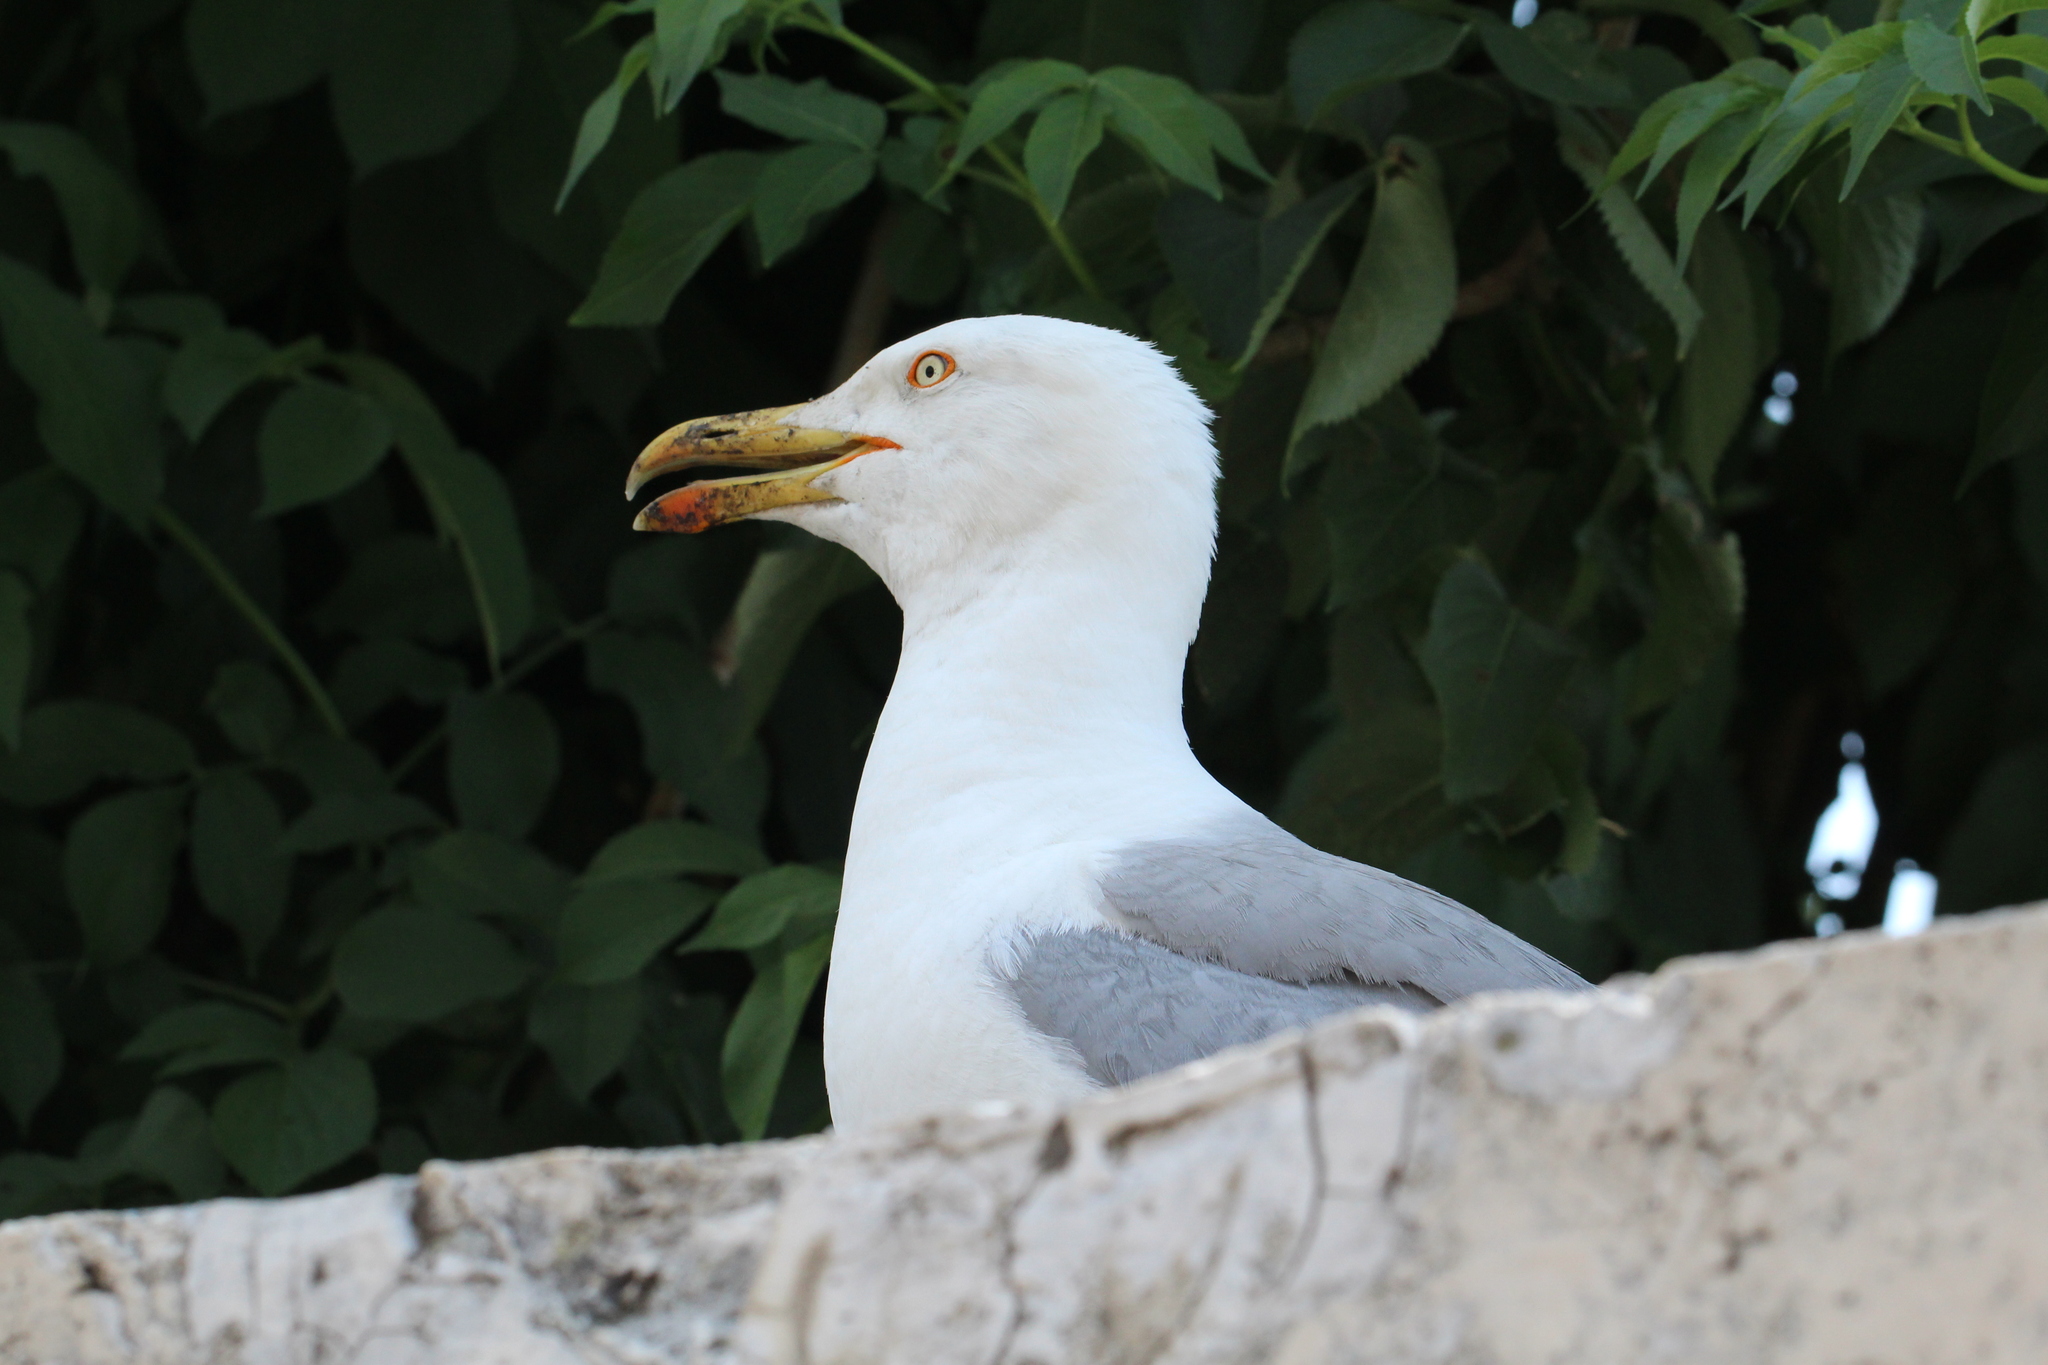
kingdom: Animalia
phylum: Chordata
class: Aves
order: Charadriiformes
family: Laridae
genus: Larus
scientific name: Larus michahellis
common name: Yellow-legged gull
